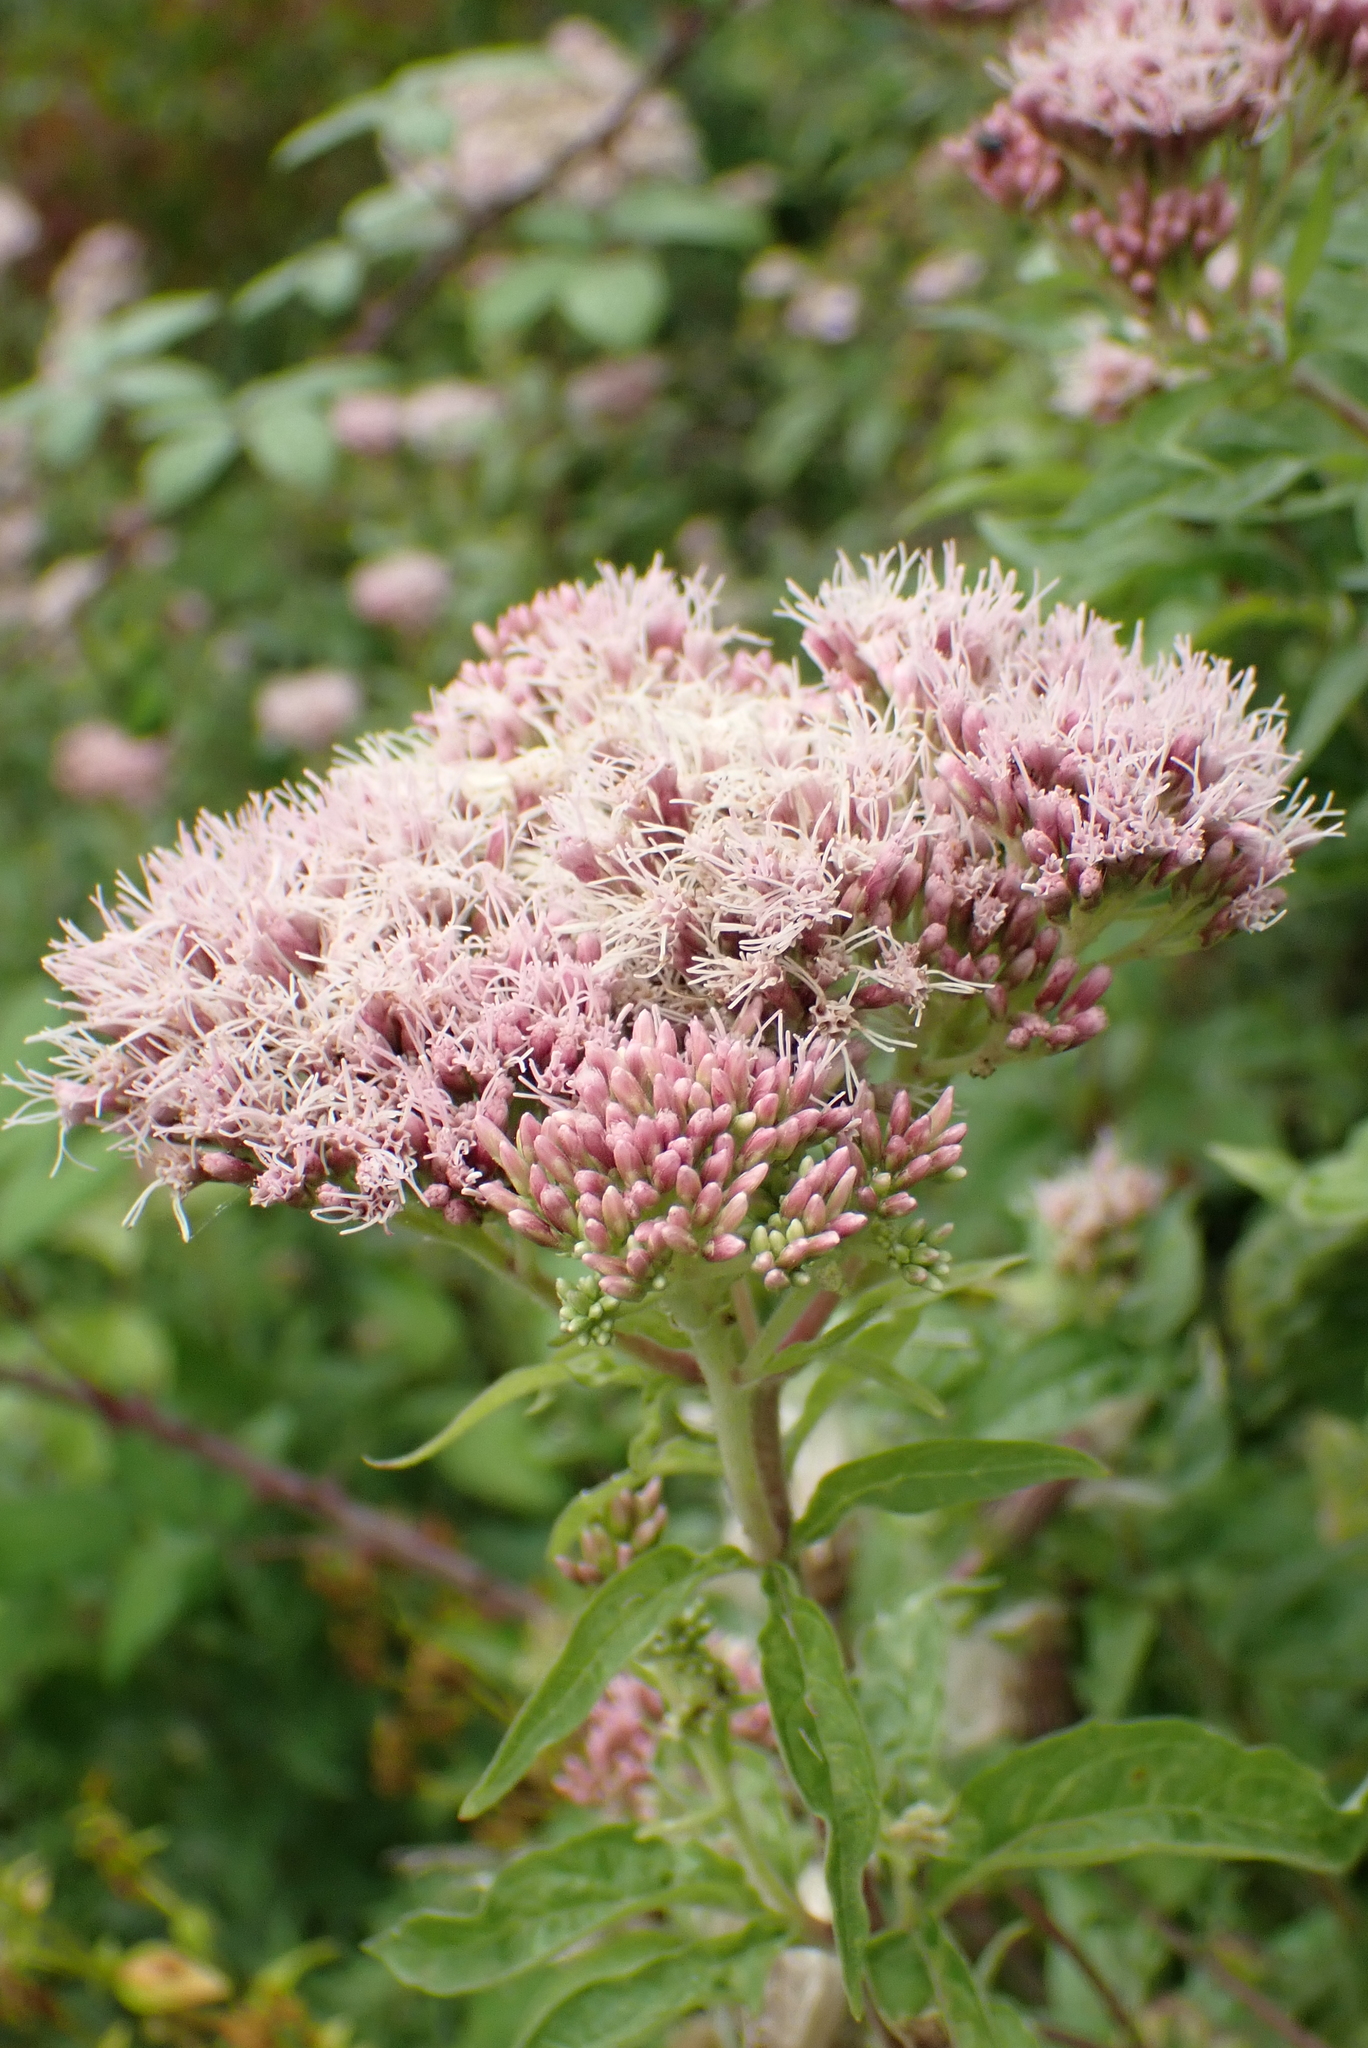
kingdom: Plantae
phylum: Tracheophyta
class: Magnoliopsida
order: Asterales
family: Asteraceae
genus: Eupatorium
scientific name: Eupatorium cannabinum
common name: Hemp-agrimony
